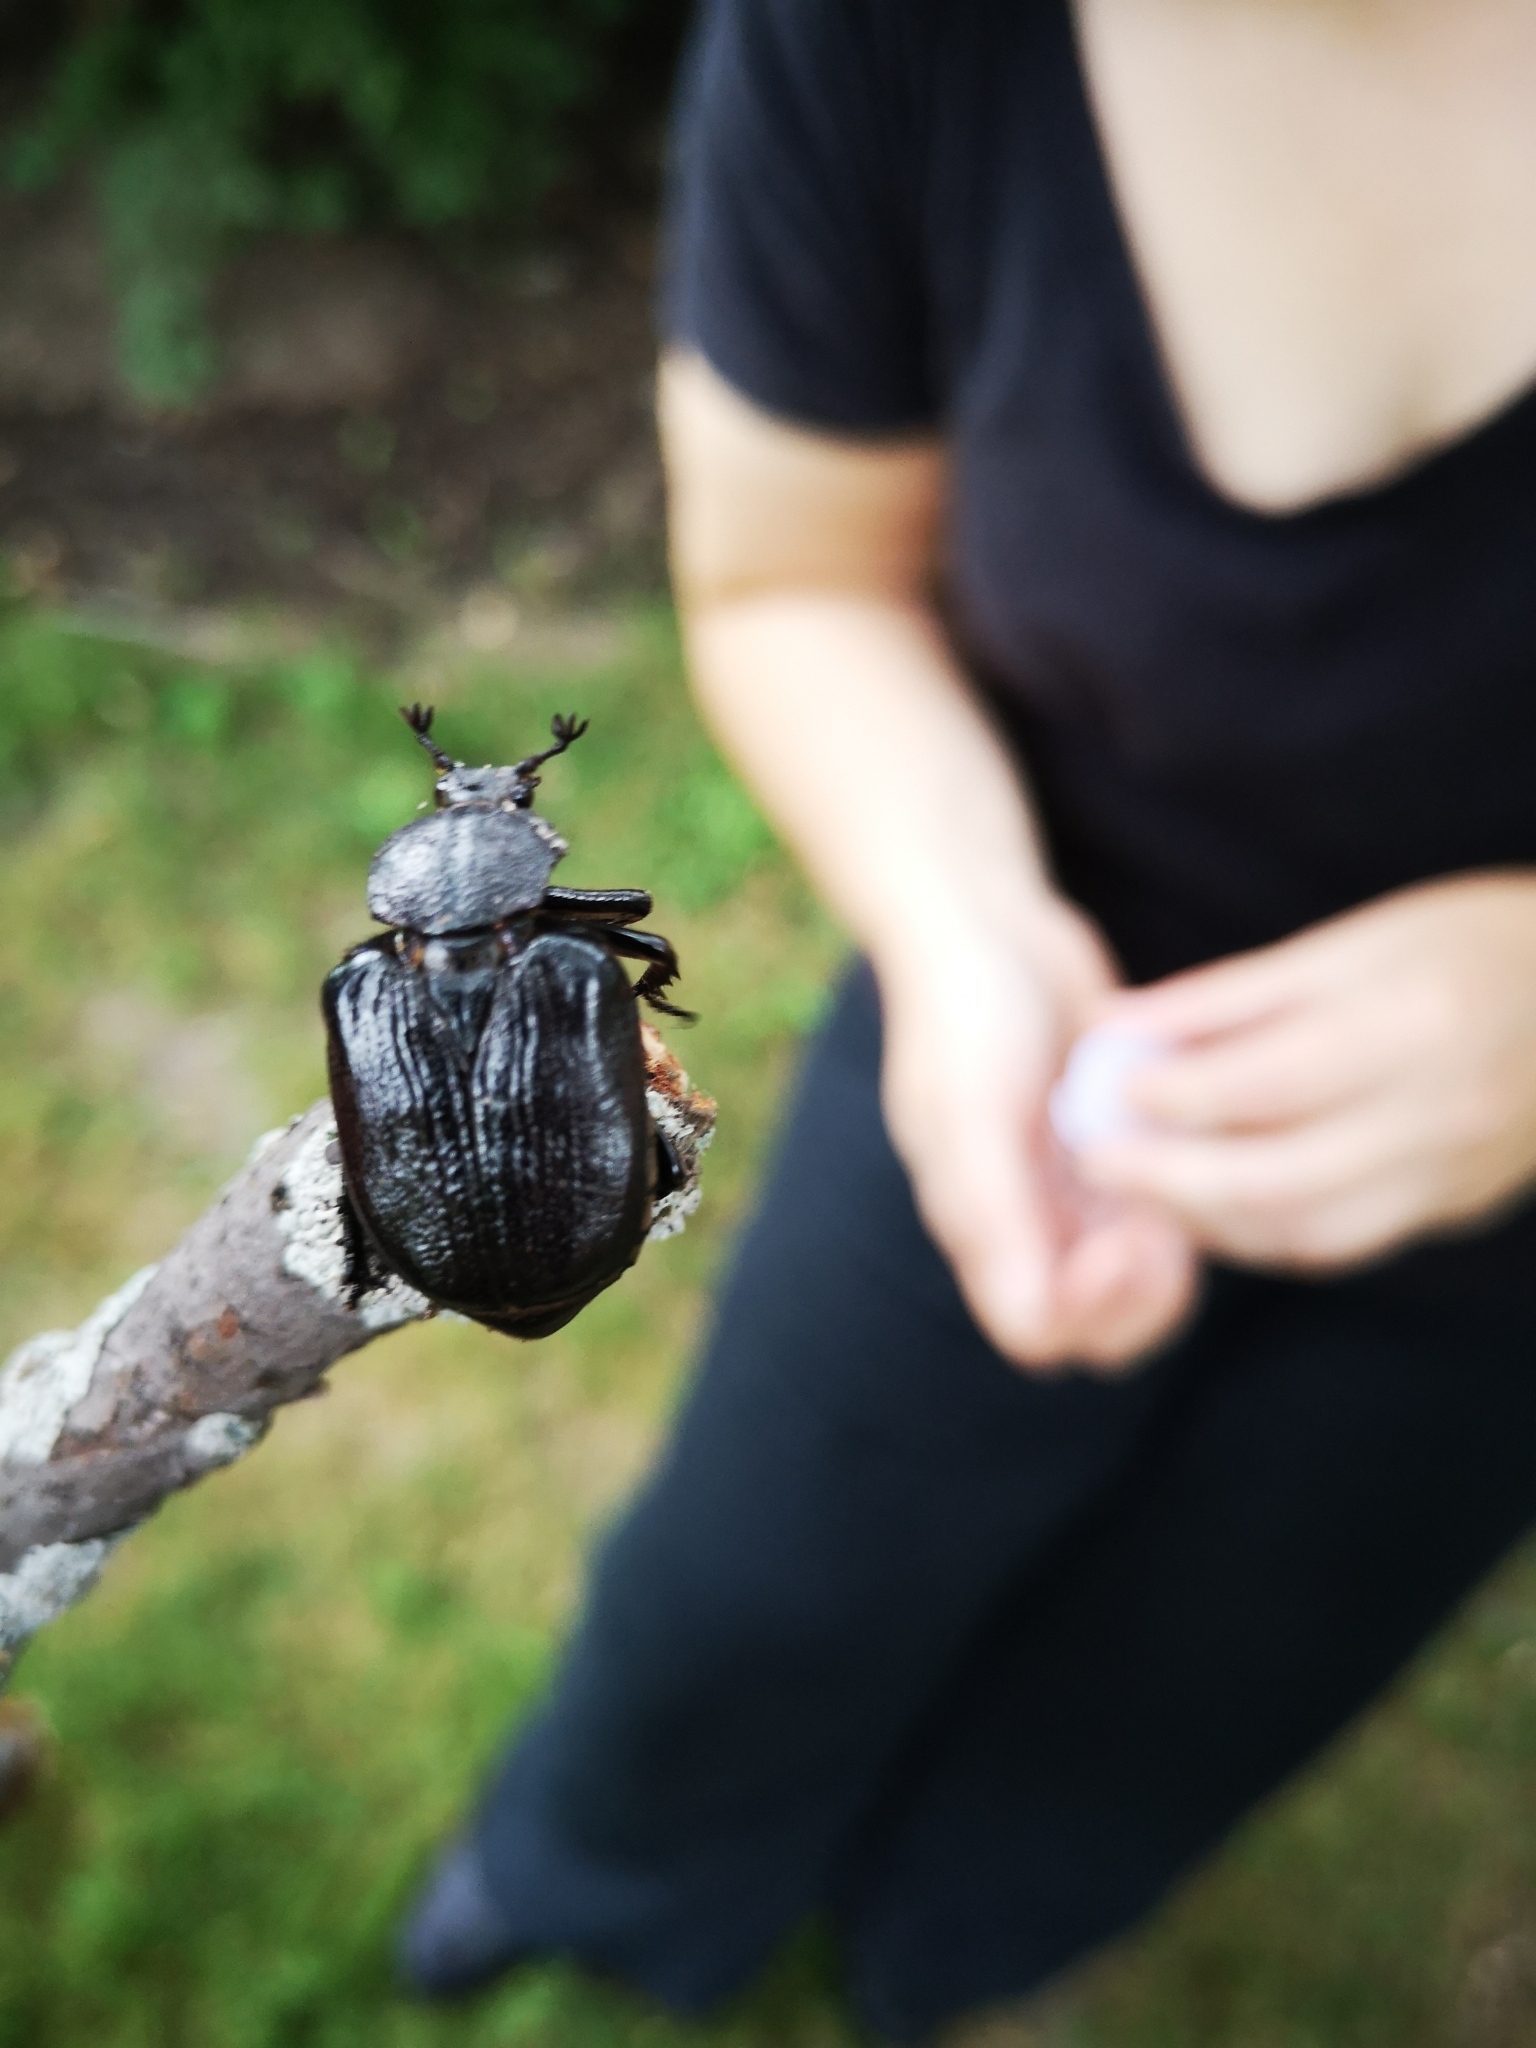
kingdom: Animalia
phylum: Arthropoda
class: Insecta
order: Coleoptera
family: Scarabaeidae
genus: Osmoderma
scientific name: Osmoderma scabra
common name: Rough hermit beetle
